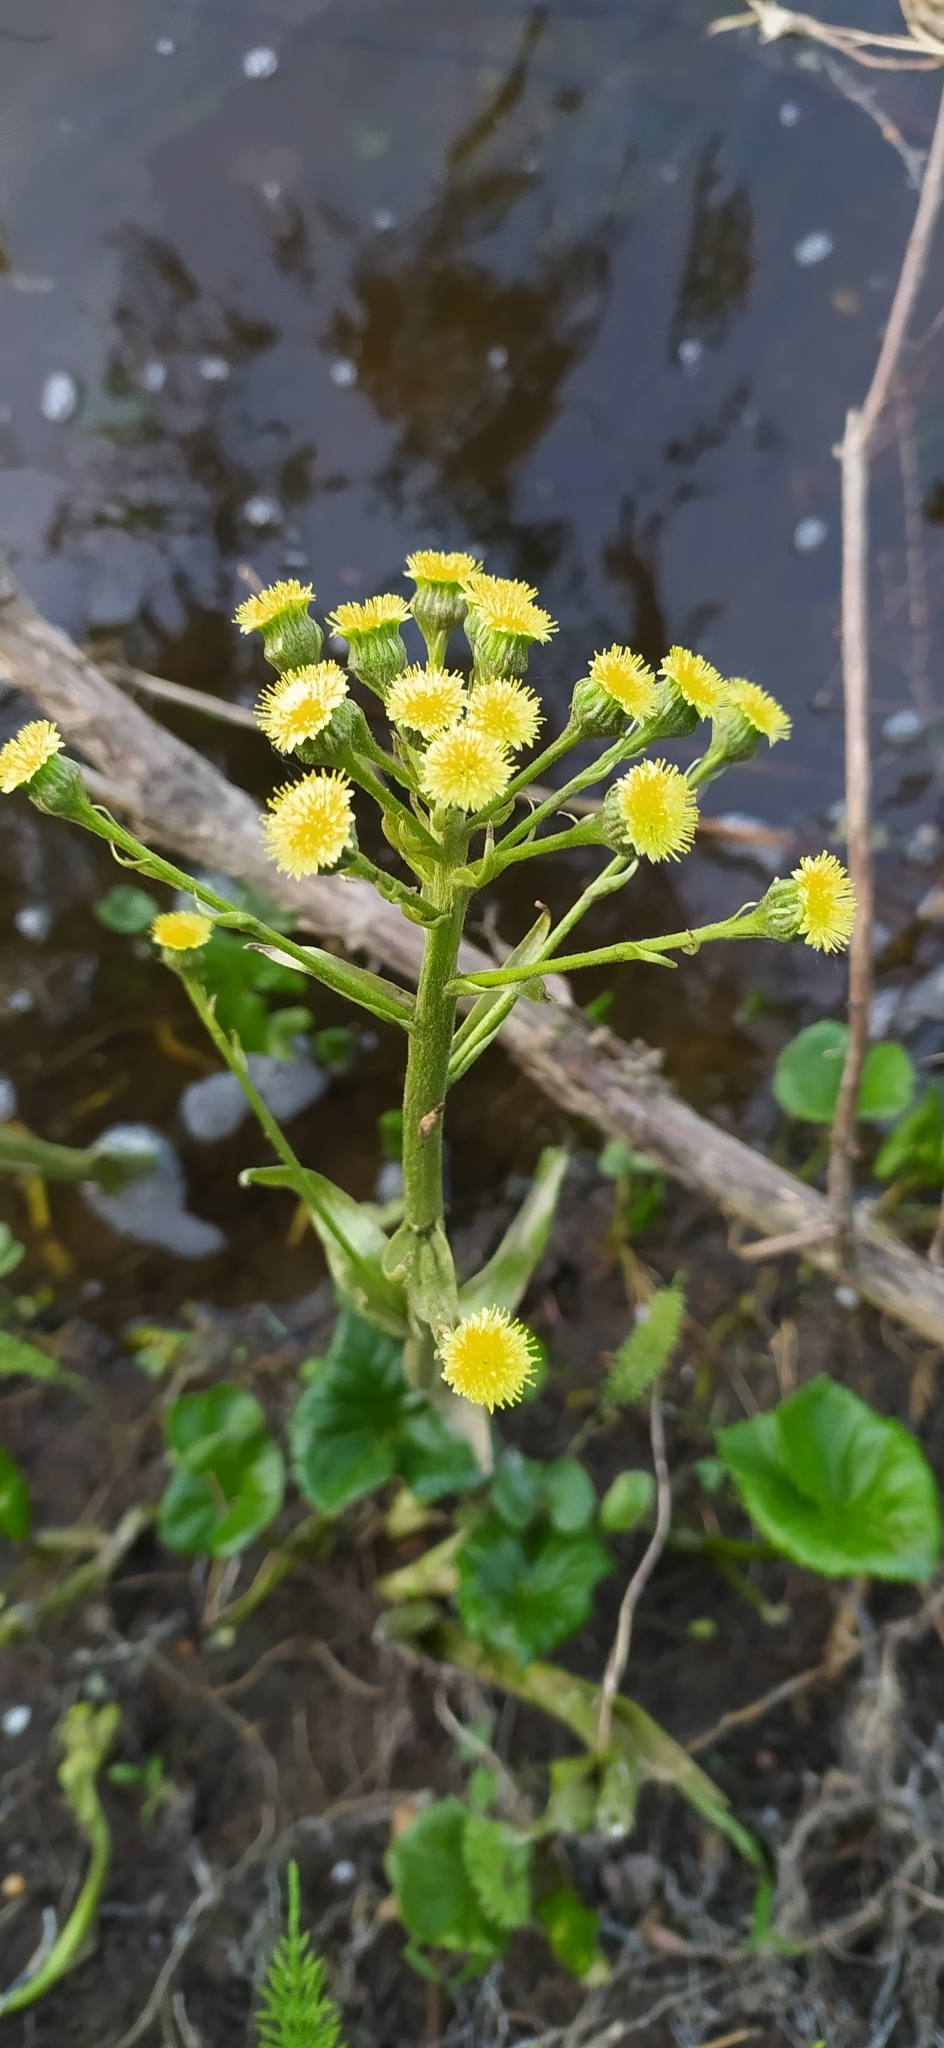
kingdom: Plantae
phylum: Tracheophyta
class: Magnoliopsida
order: Asterales
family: Asteraceae
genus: Petasites
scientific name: Petasites radiatus
